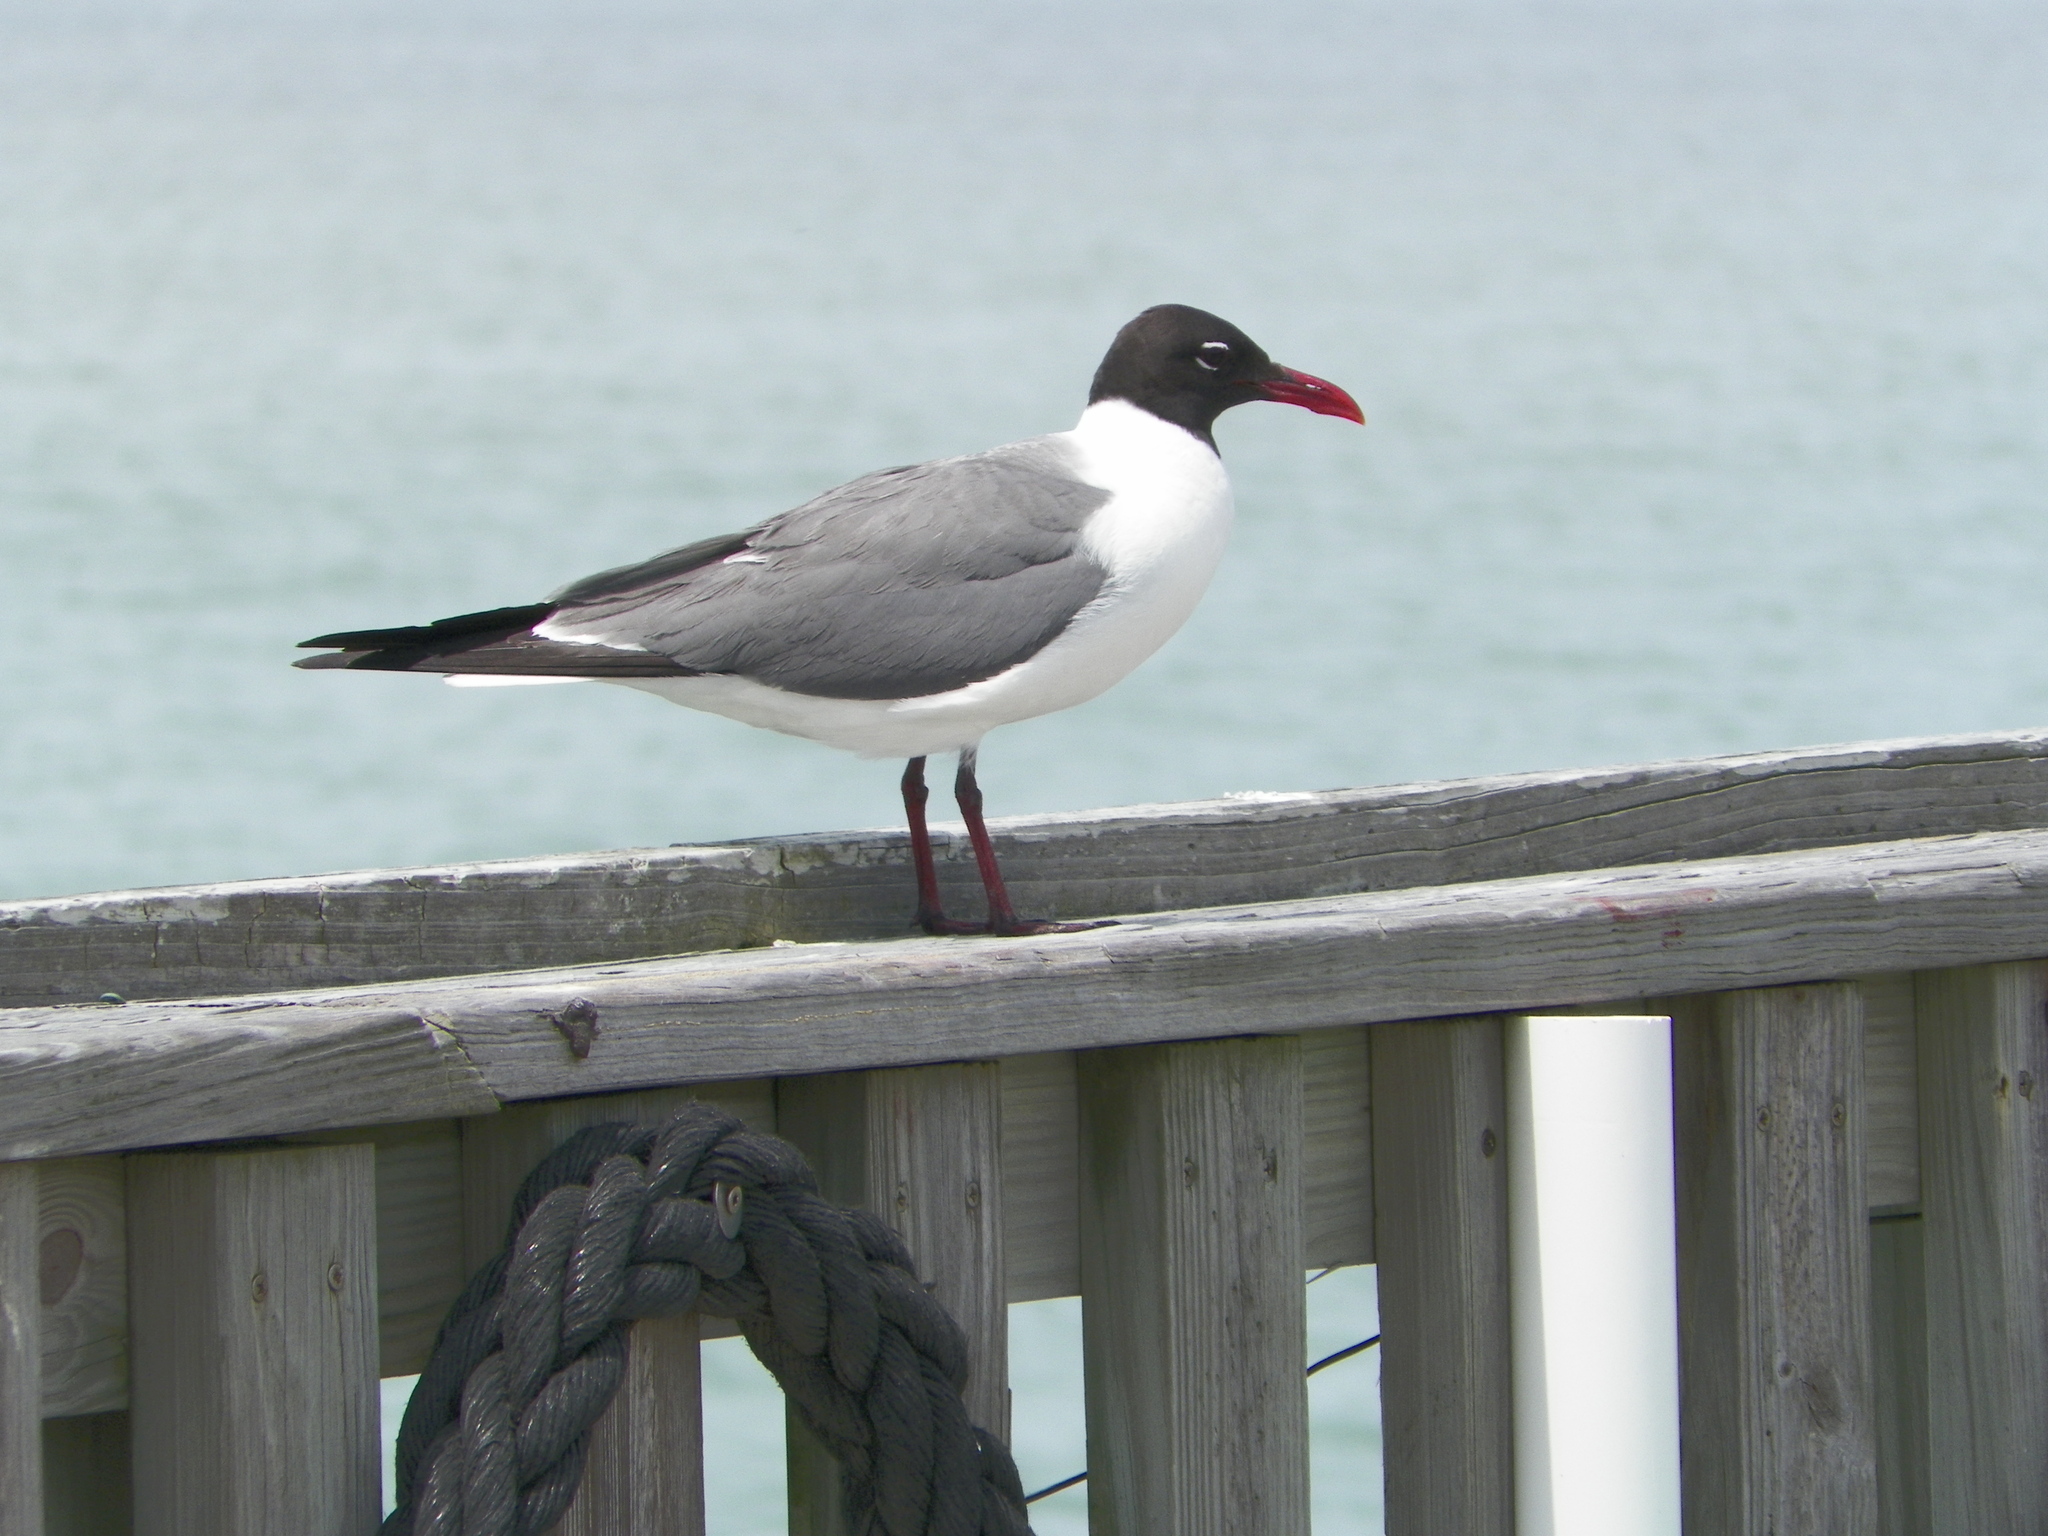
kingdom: Animalia
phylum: Chordata
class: Aves
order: Charadriiformes
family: Laridae
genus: Leucophaeus
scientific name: Leucophaeus atricilla
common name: Laughing gull
